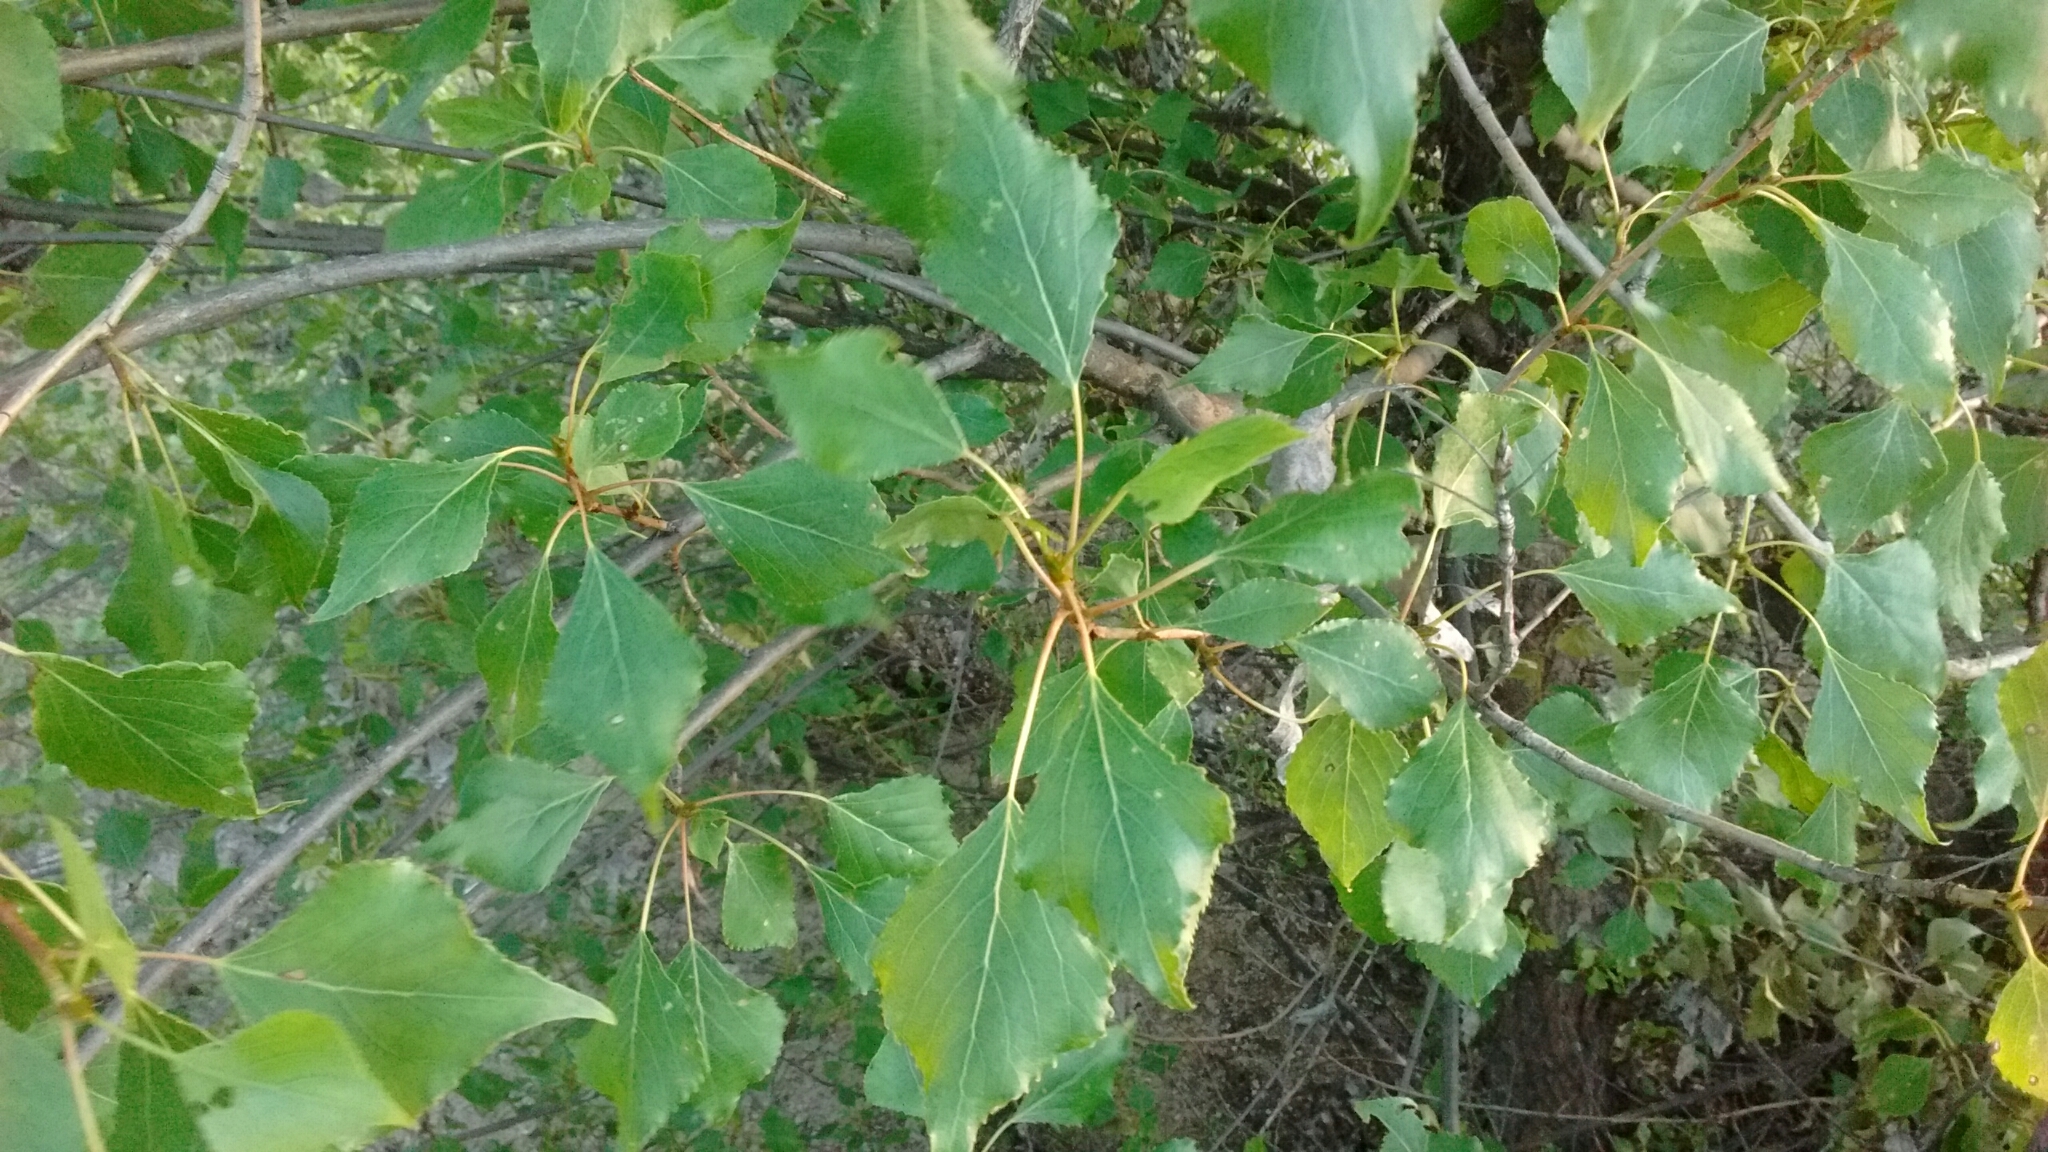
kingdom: Plantae
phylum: Tracheophyta
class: Magnoliopsida
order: Malpighiales
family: Salicaceae
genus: Populus
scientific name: Populus nigra
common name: Black poplar
